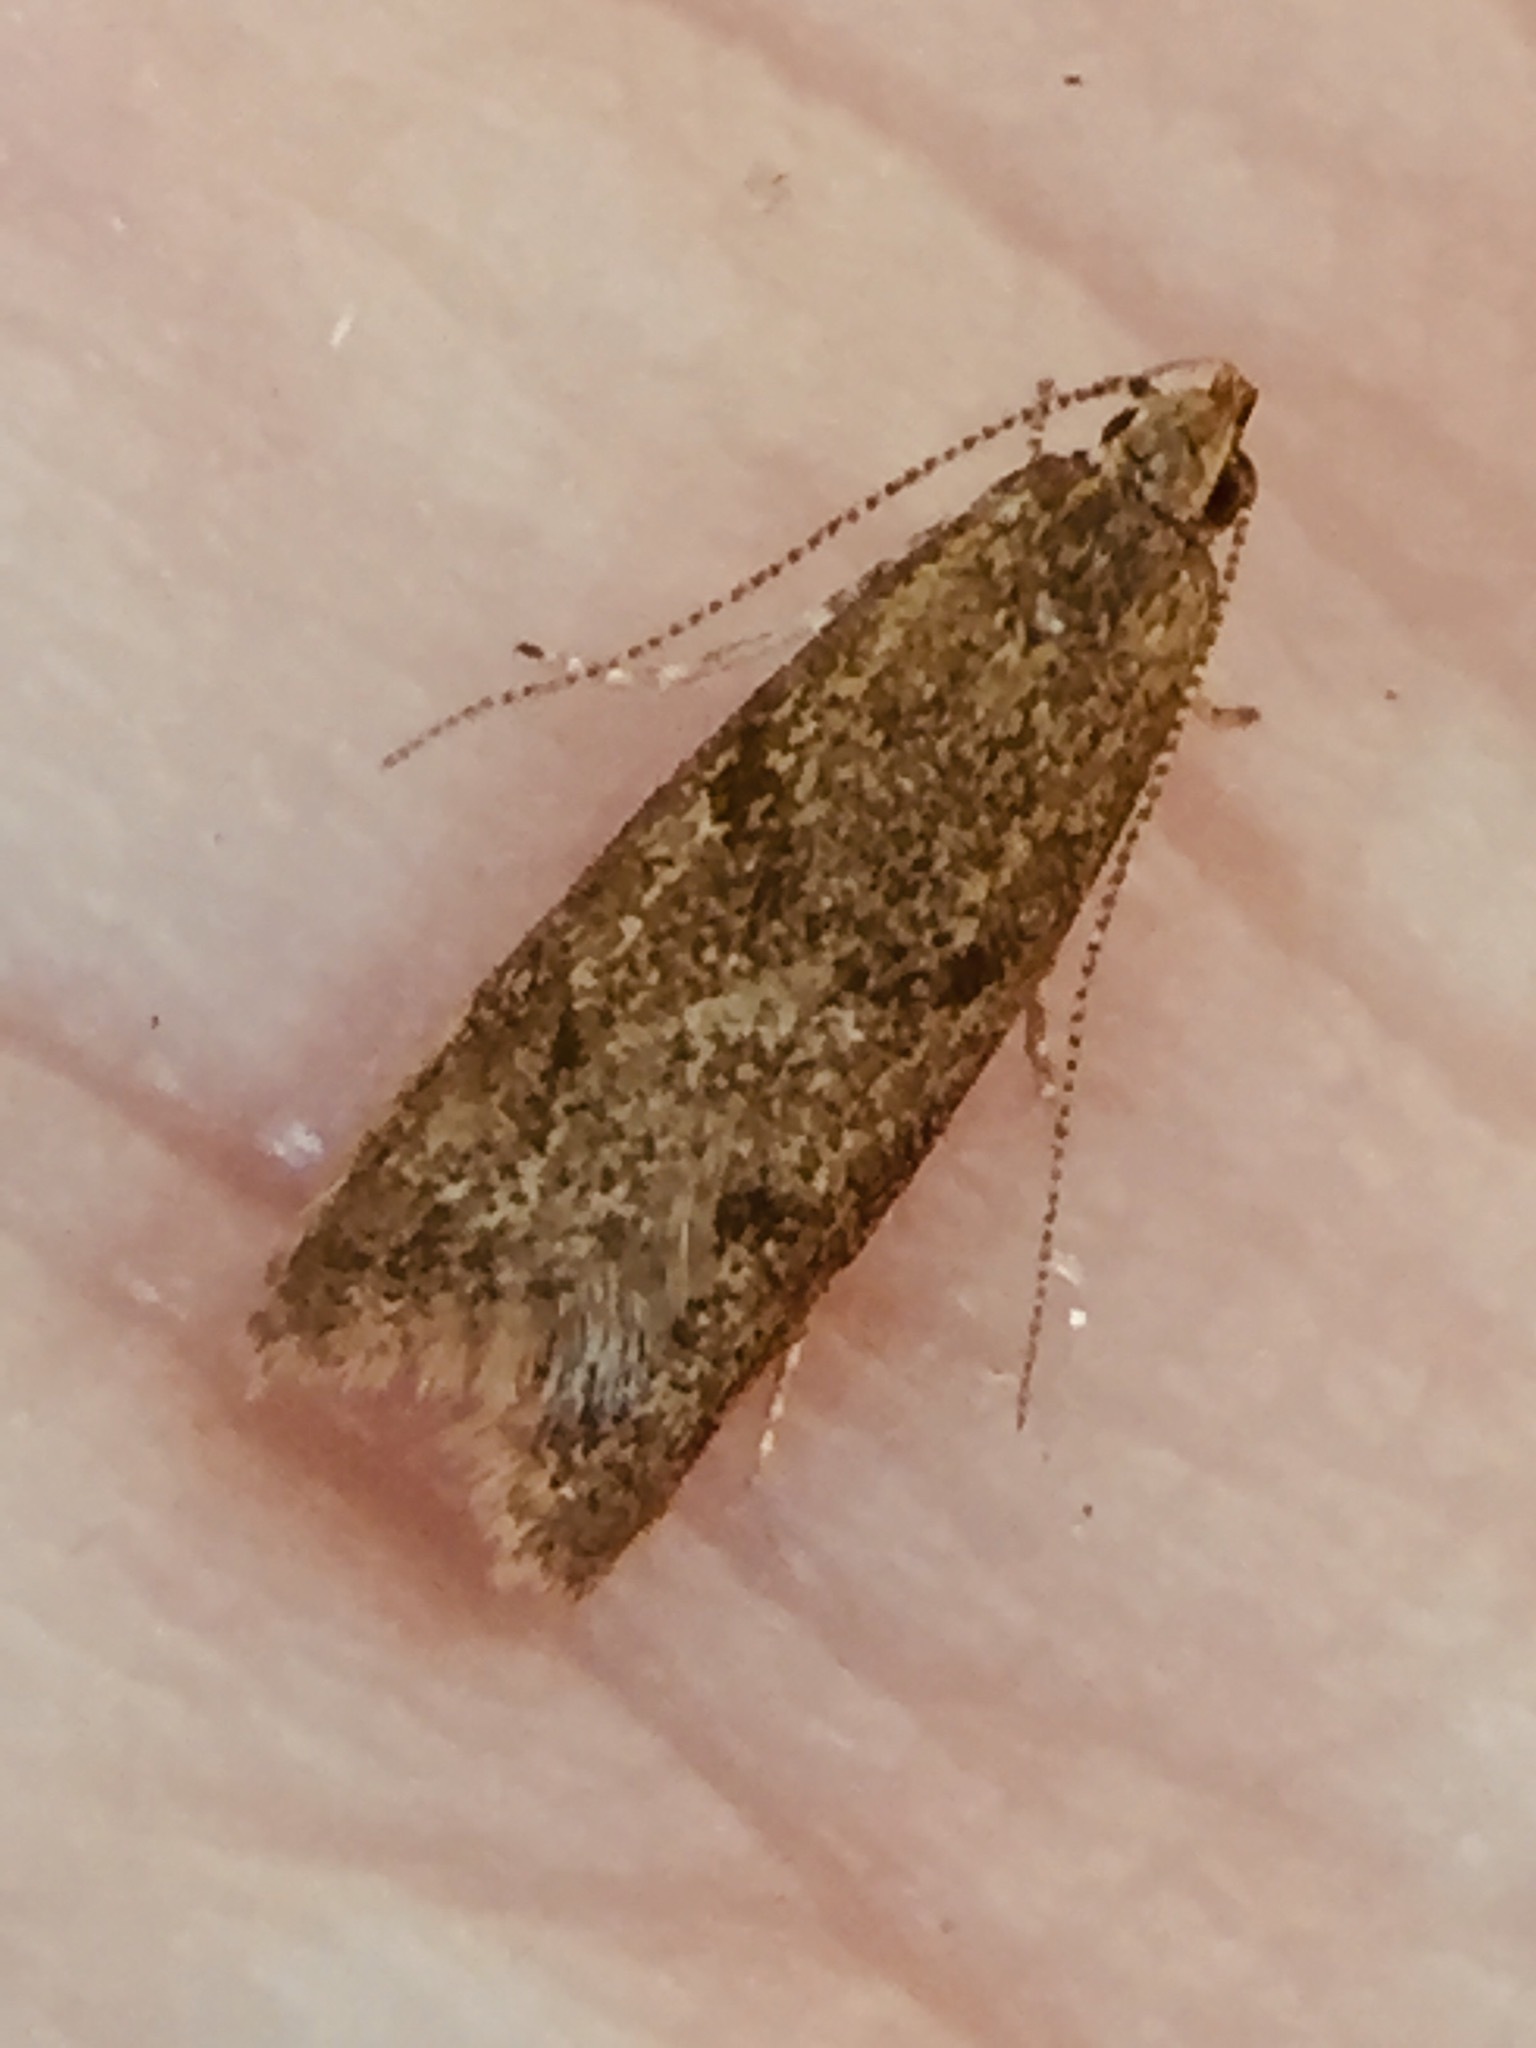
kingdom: Animalia
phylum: Arthropoda
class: Insecta
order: Lepidoptera
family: Oecophoridae
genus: Gymnobathra
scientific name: Gymnobathra tholodella
